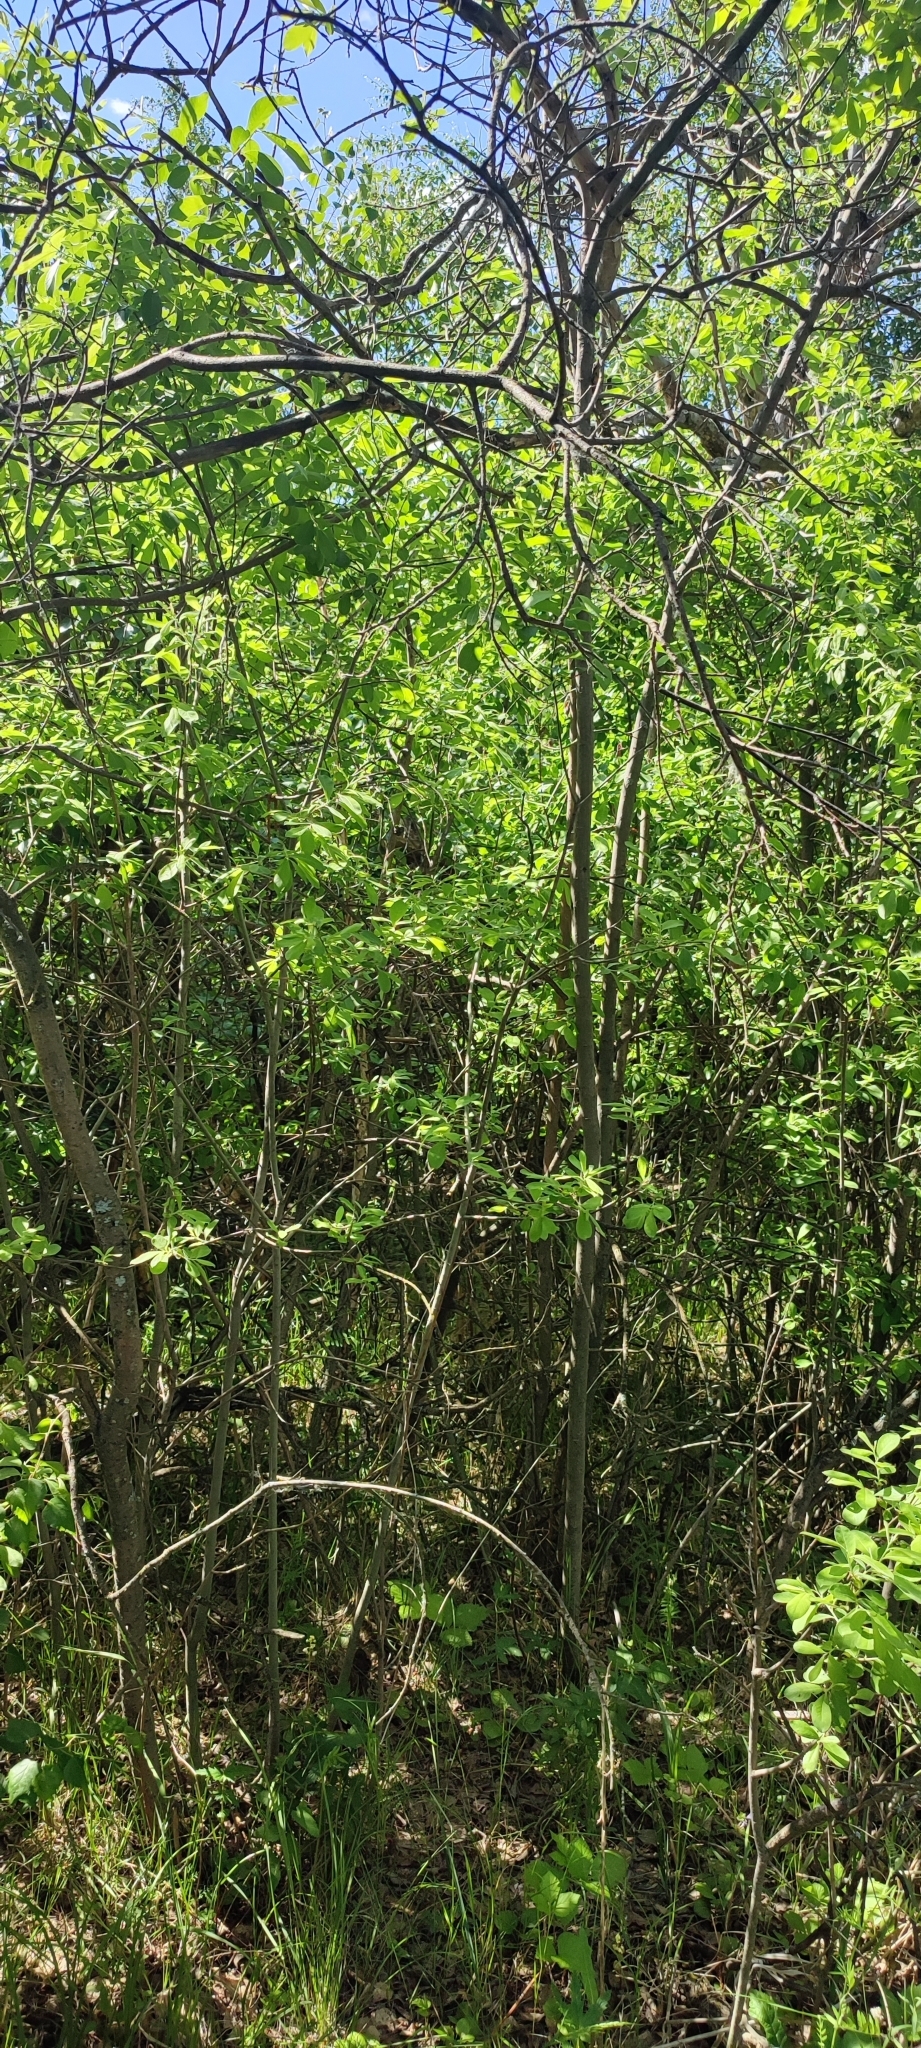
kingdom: Plantae
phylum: Tracheophyta
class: Magnoliopsida
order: Malpighiales
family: Salicaceae
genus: Salix
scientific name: Salix cinerea
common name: Common sallow
